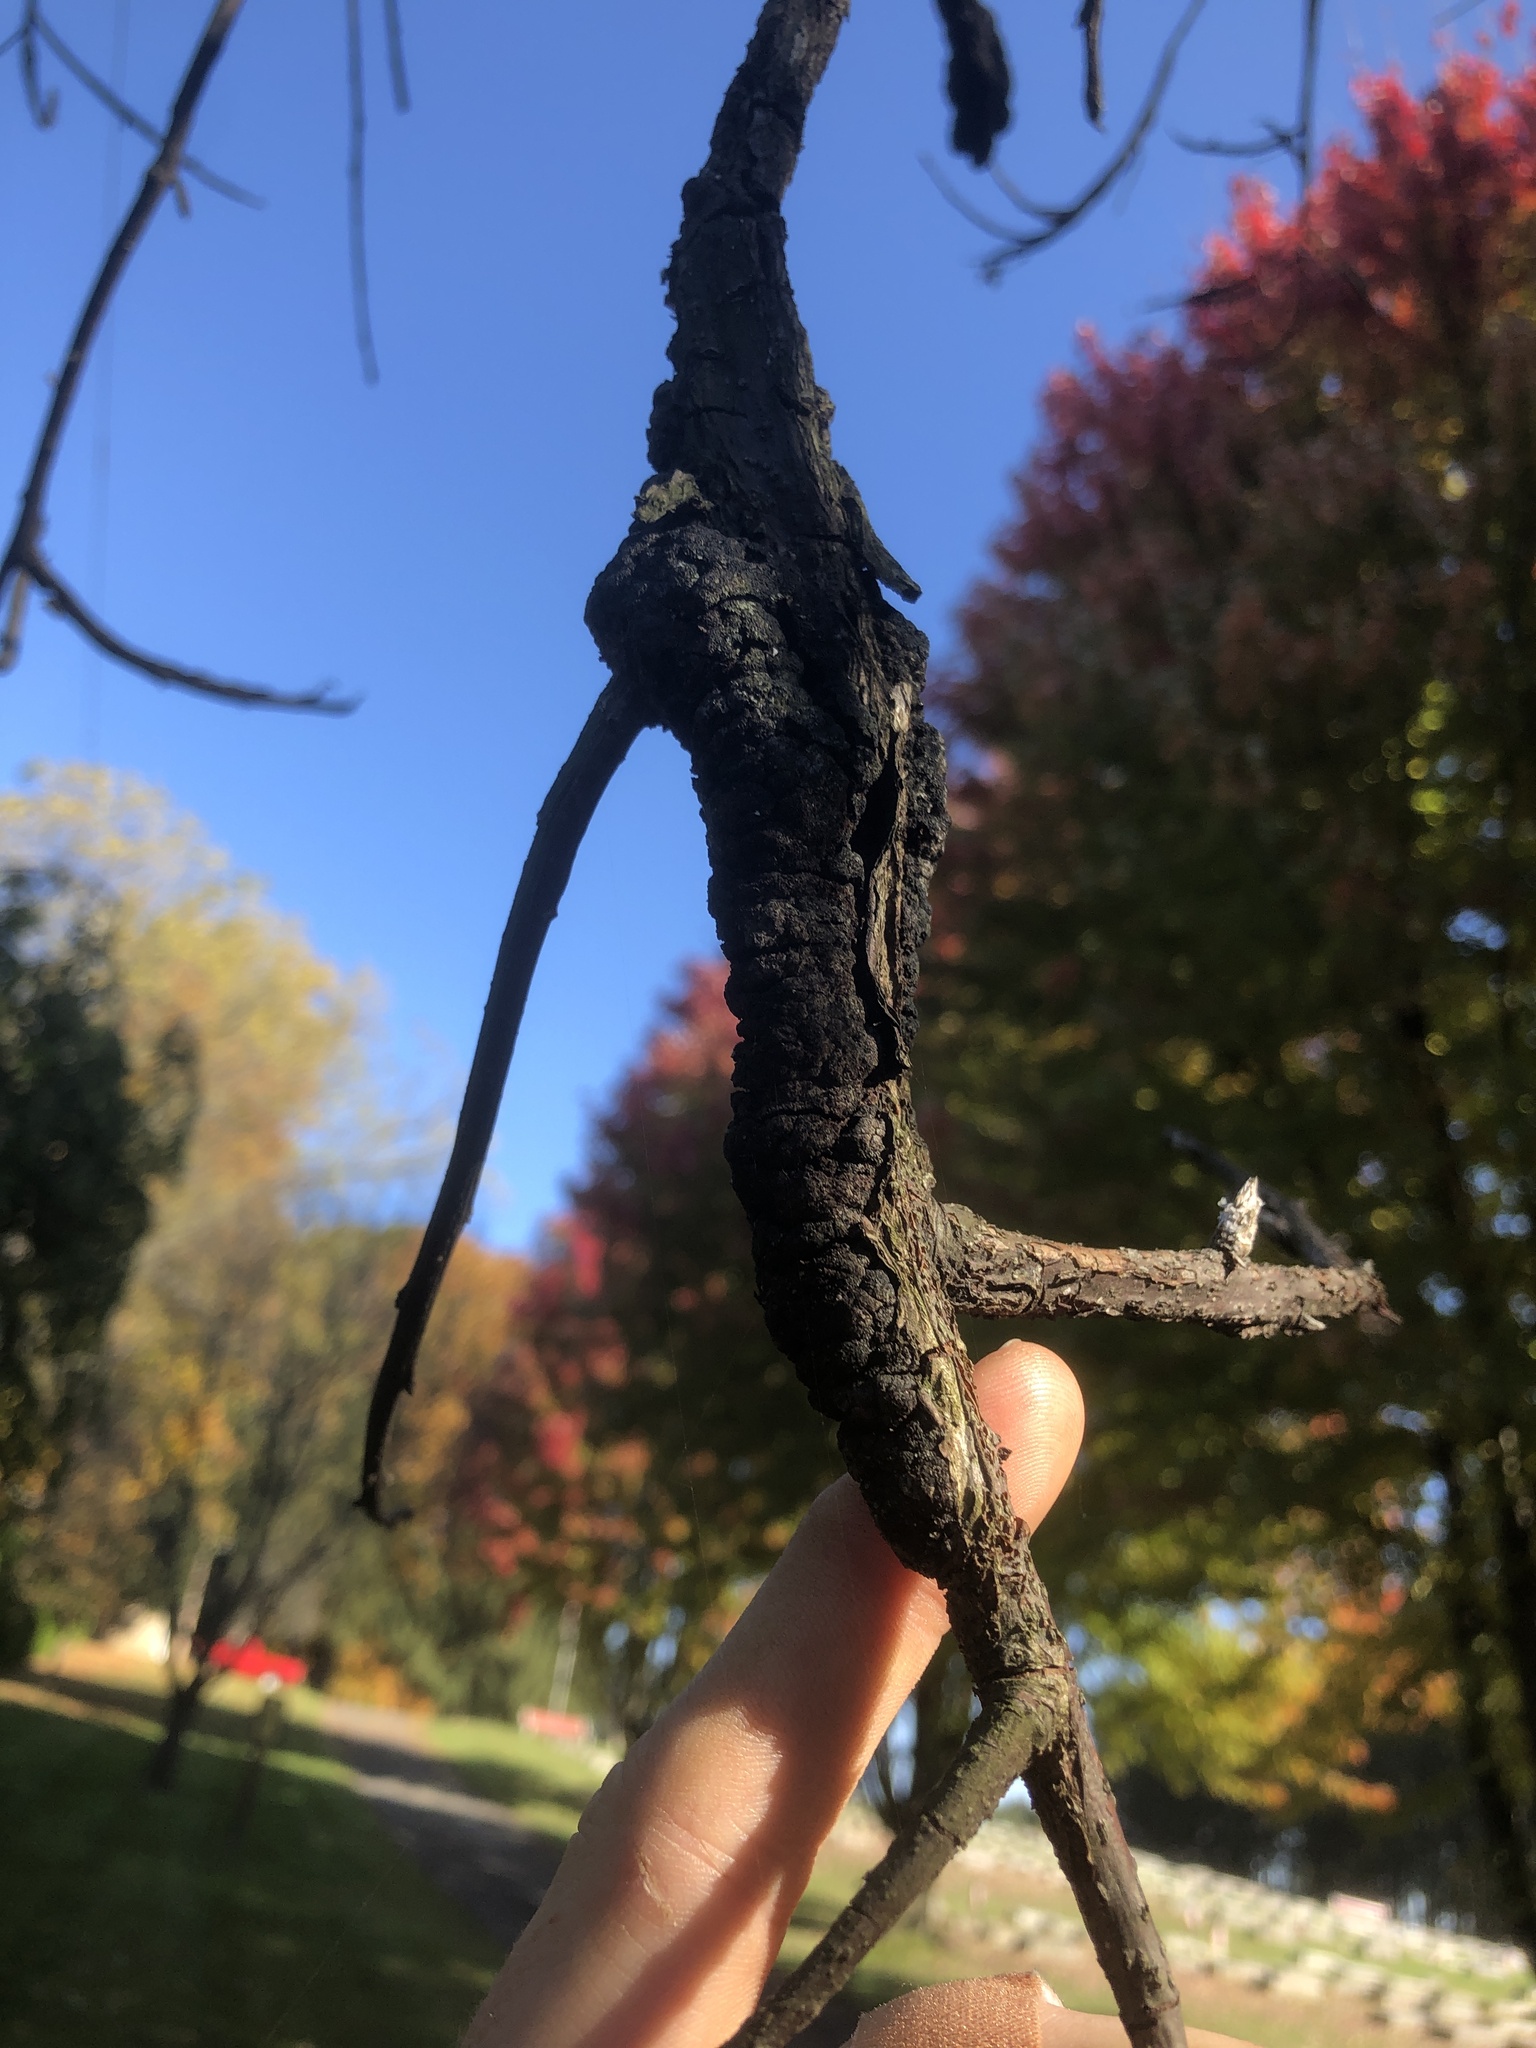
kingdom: Fungi
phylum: Ascomycota
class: Dothideomycetes
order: Venturiales
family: Venturiaceae
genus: Apiosporina
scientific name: Apiosporina morbosa
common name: Black knot
